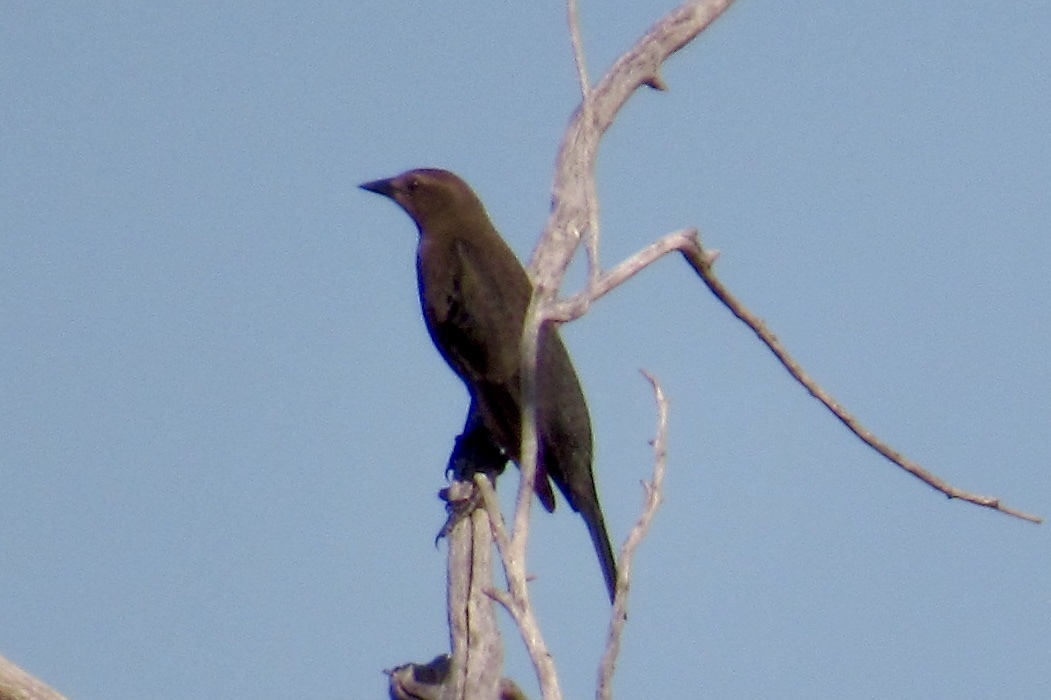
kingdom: Animalia
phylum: Chordata
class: Aves
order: Passeriformes
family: Icteridae
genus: Euphagus
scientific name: Euphagus cyanocephalus
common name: Brewer's blackbird
